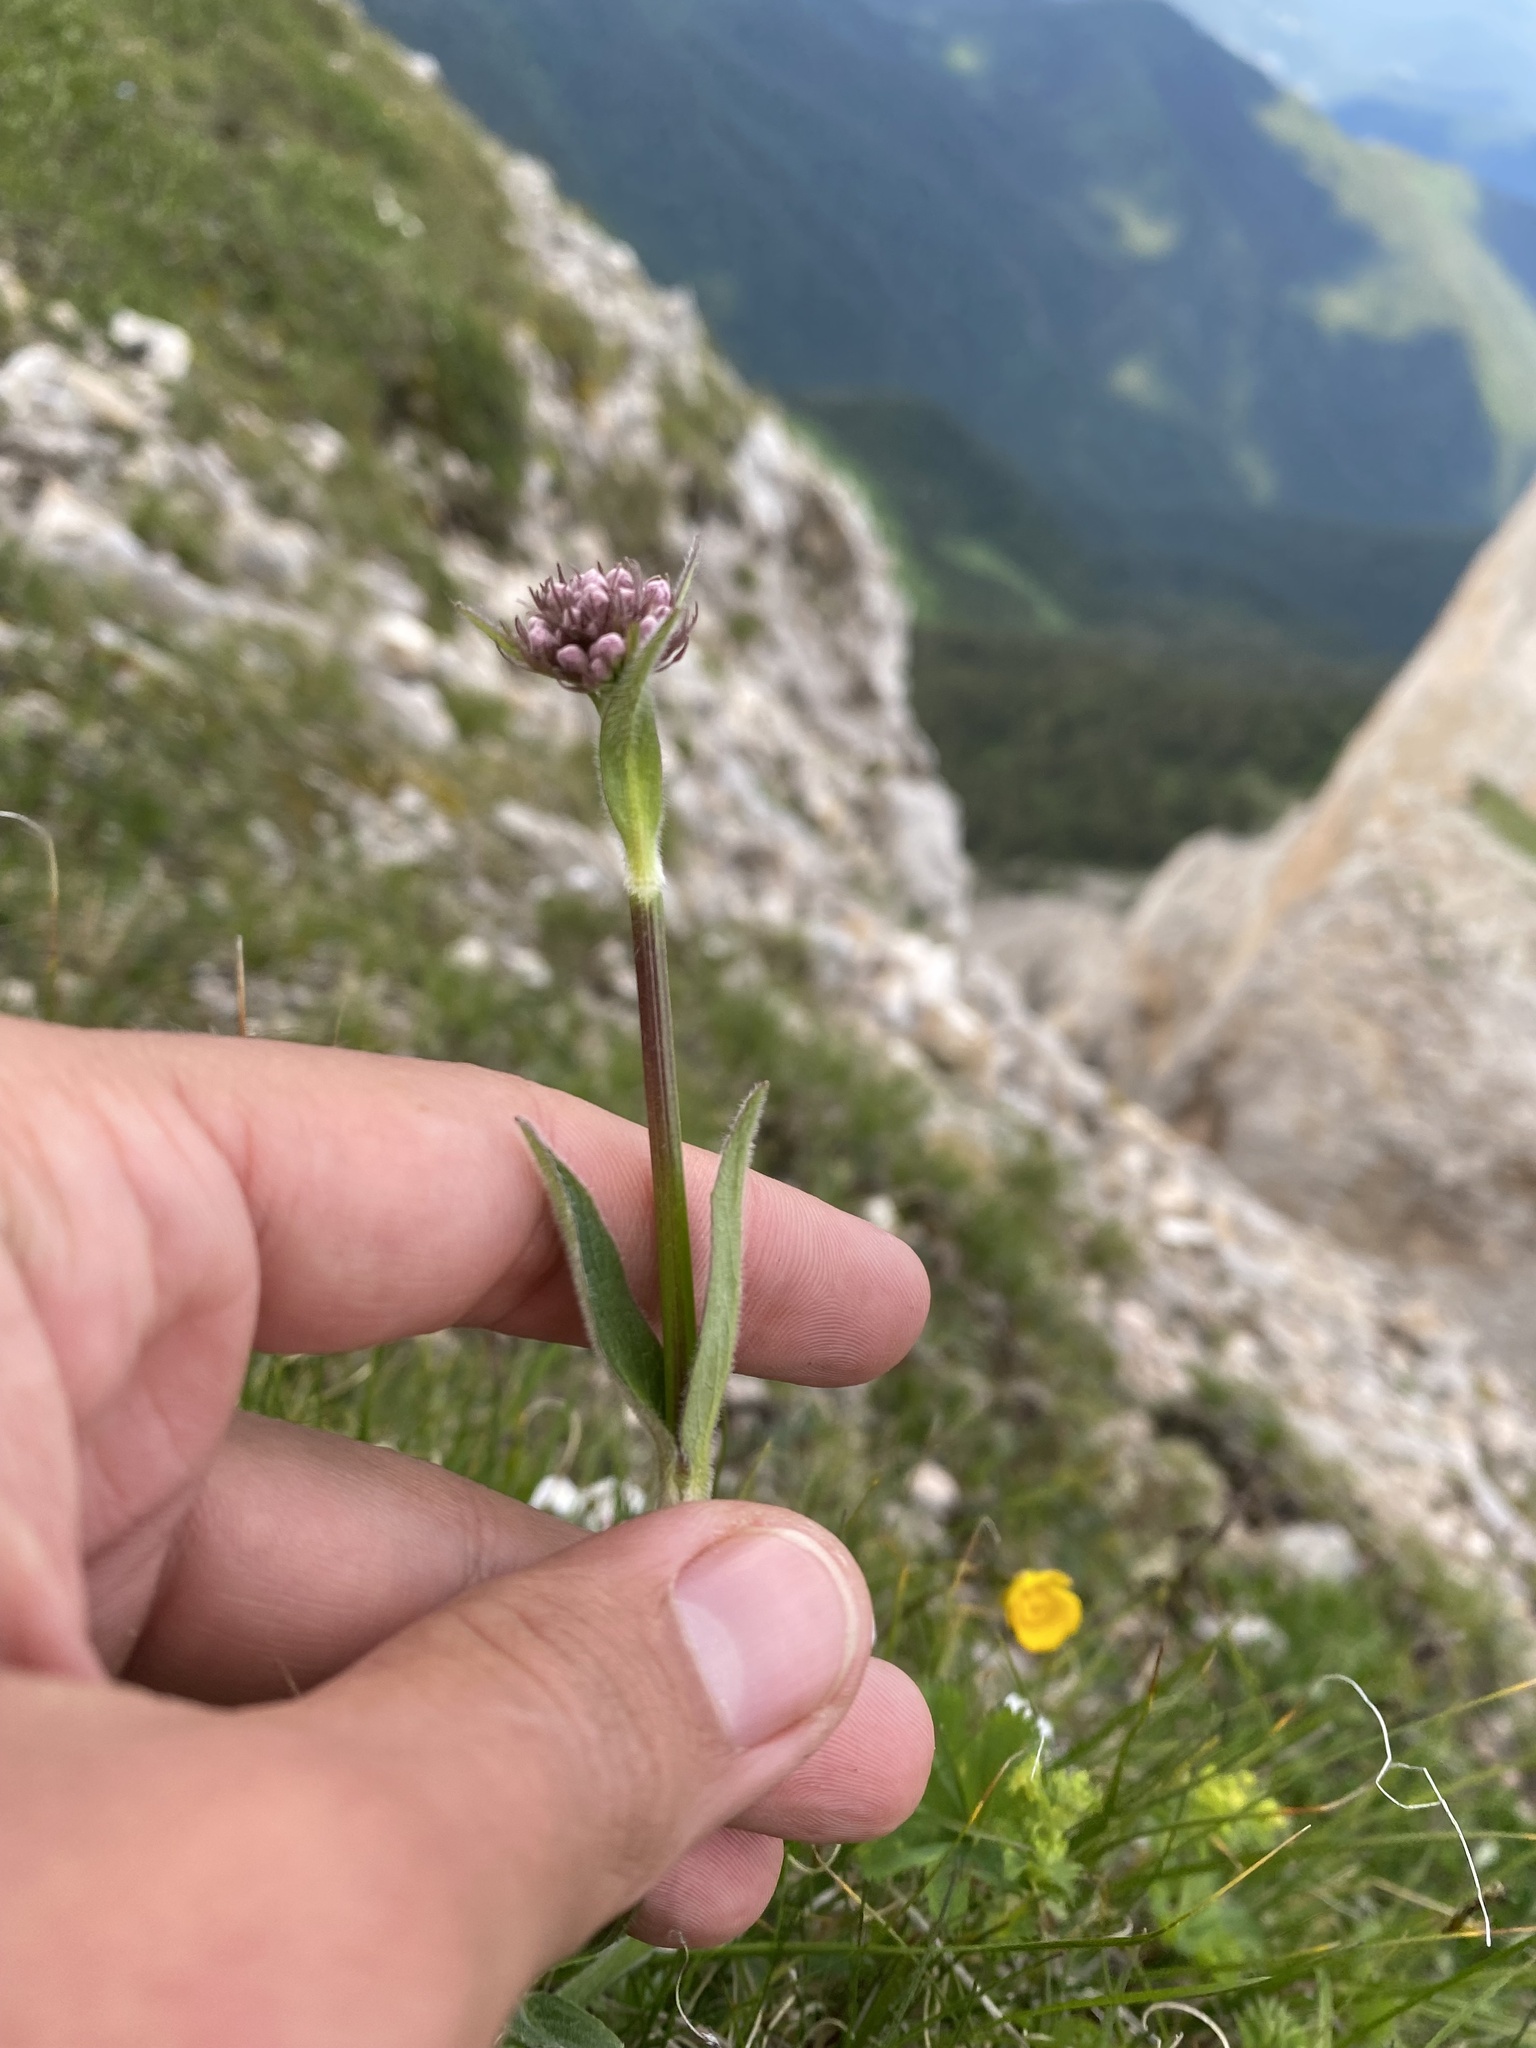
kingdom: Plantae
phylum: Tracheophyta
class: Magnoliopsida
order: Dipsacales
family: Caprifoliaceae
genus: Valeriana
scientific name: Valeriana alpestris
